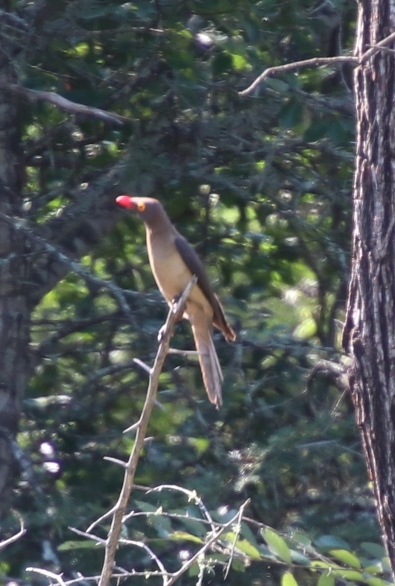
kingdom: Animalia
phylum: Chordata
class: Aves
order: Passeriformes
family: Buphagidae
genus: Buphagus
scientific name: Buphagus erythrorhynchus
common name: Red-billed oxpecker
